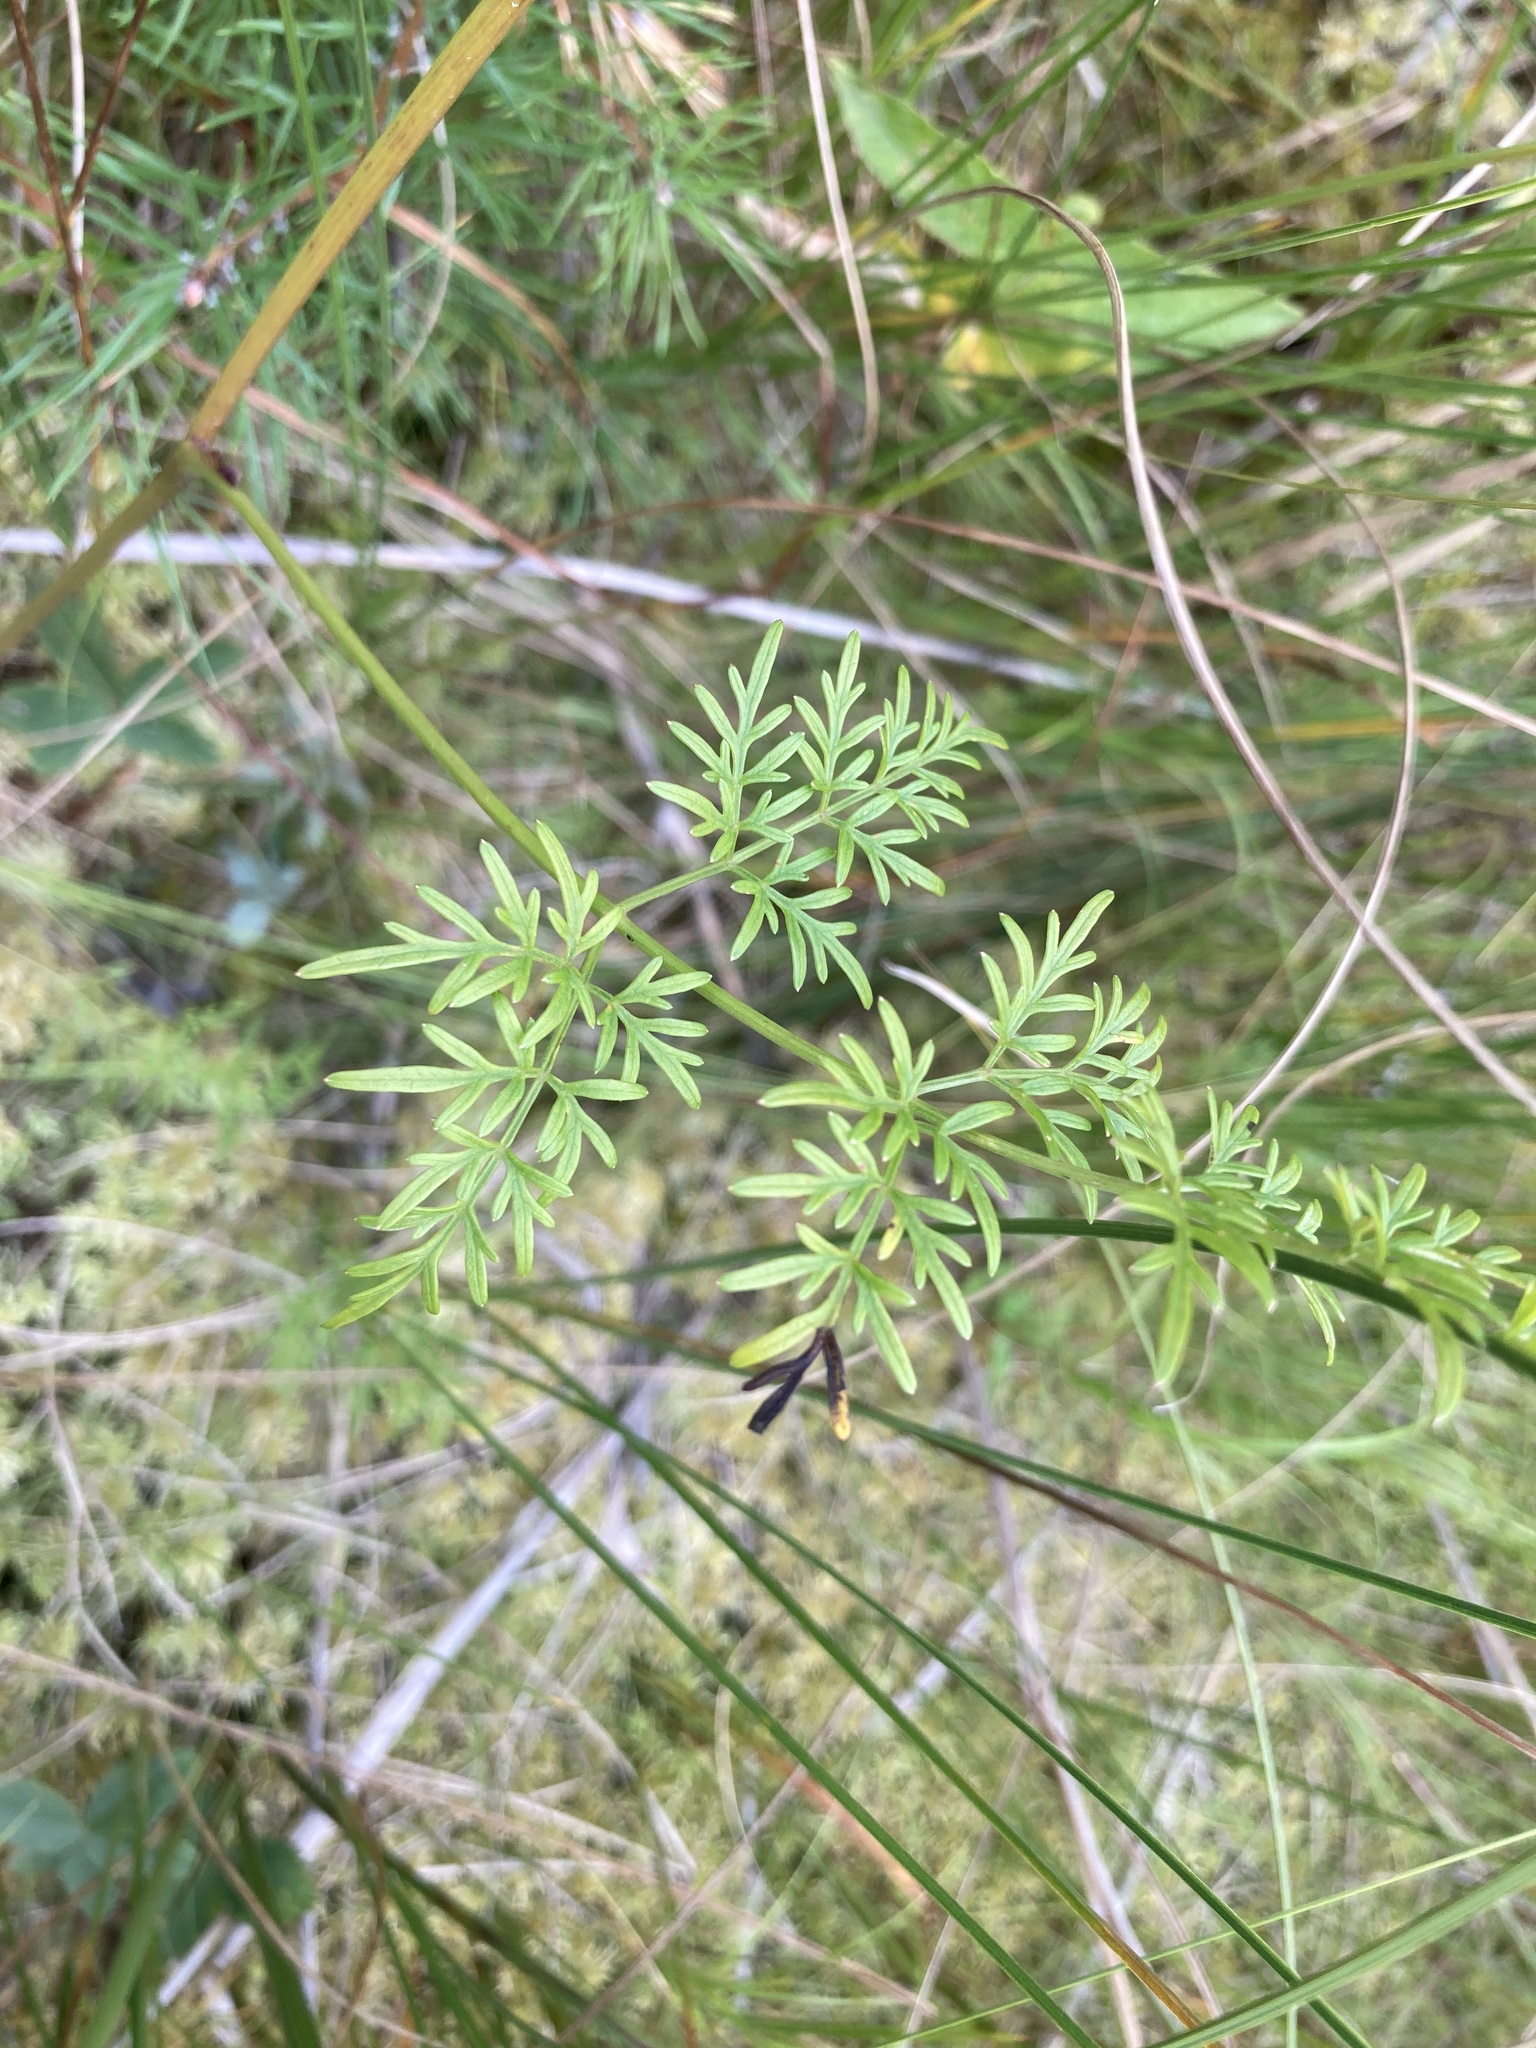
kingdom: Plantae
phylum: Tracheophyta
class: Magnoliopsida
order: Apiales
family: Apiaceae
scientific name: Apiaceae
